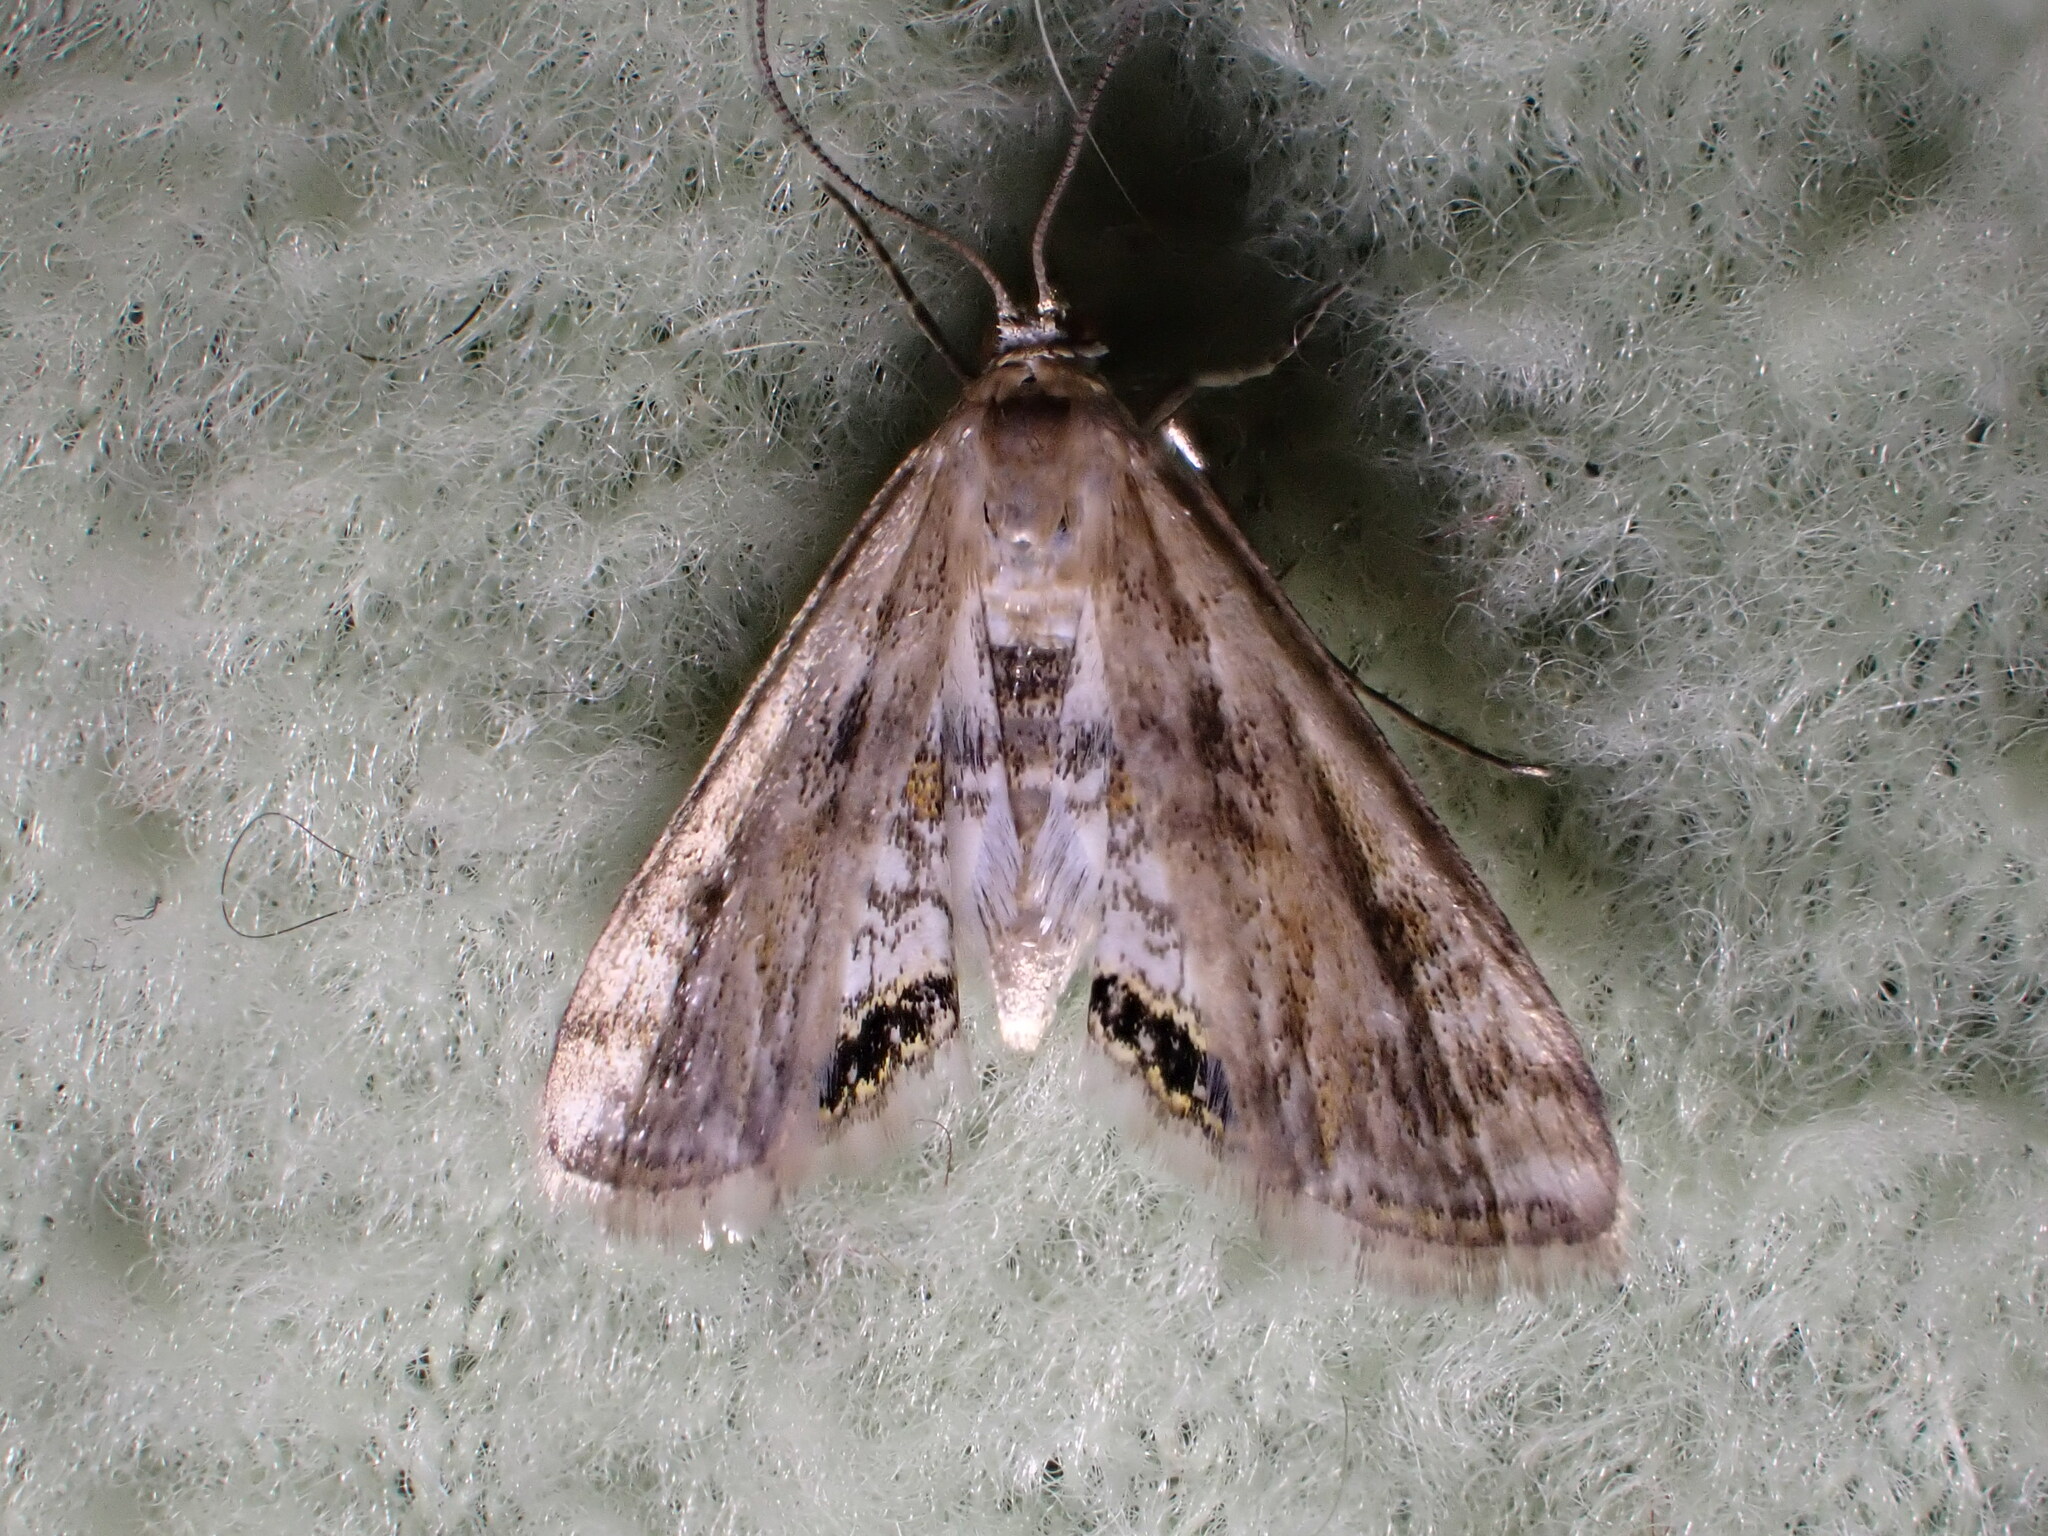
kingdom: Animalia
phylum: Arthropoda
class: Insecta
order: Lepidoptera
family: Crambidae
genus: Cataclysta
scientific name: Cataclysta lemnata
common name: Small china-mark
